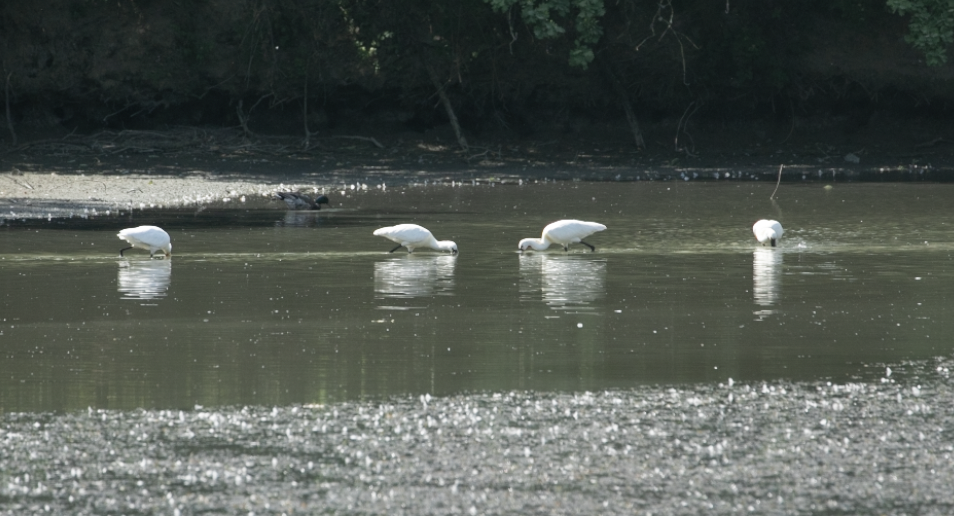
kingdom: Animalia
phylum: Chordata
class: Aves
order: Pelecaniformes
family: Threskiornithidae
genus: Platalea
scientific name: Platalea leucorodia
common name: Eurasian spoonbill
